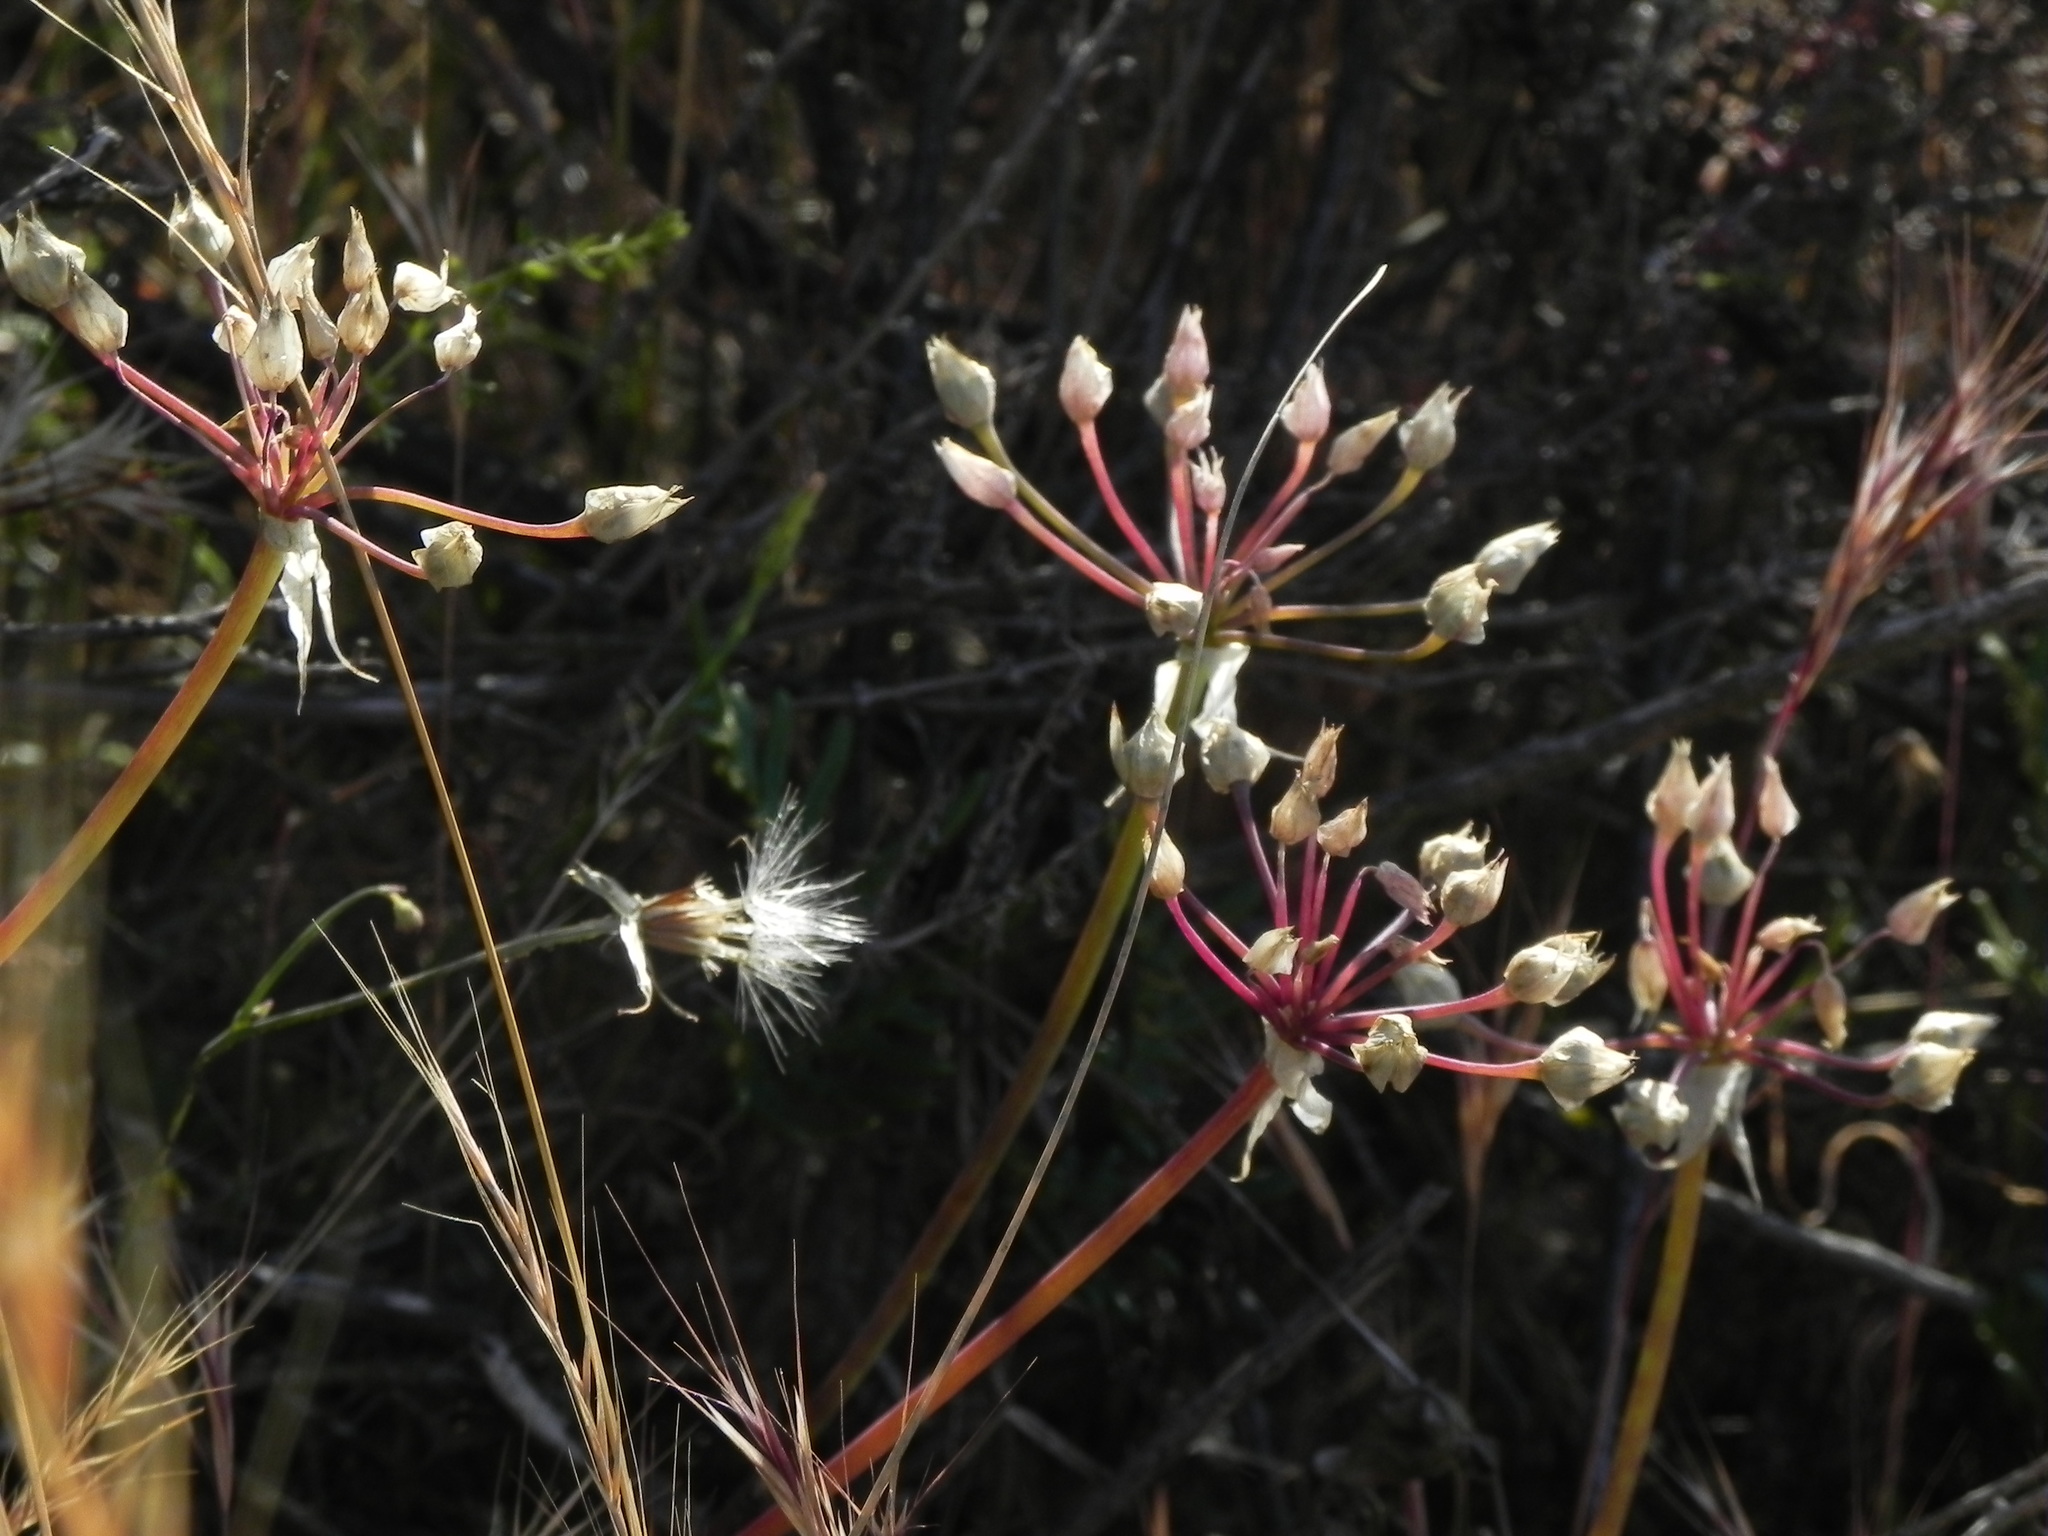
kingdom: Plantae
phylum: Tracheophyta
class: Liliopsida
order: Asparagales
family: Amaryllidaceae
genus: Allium
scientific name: Allium praecox
